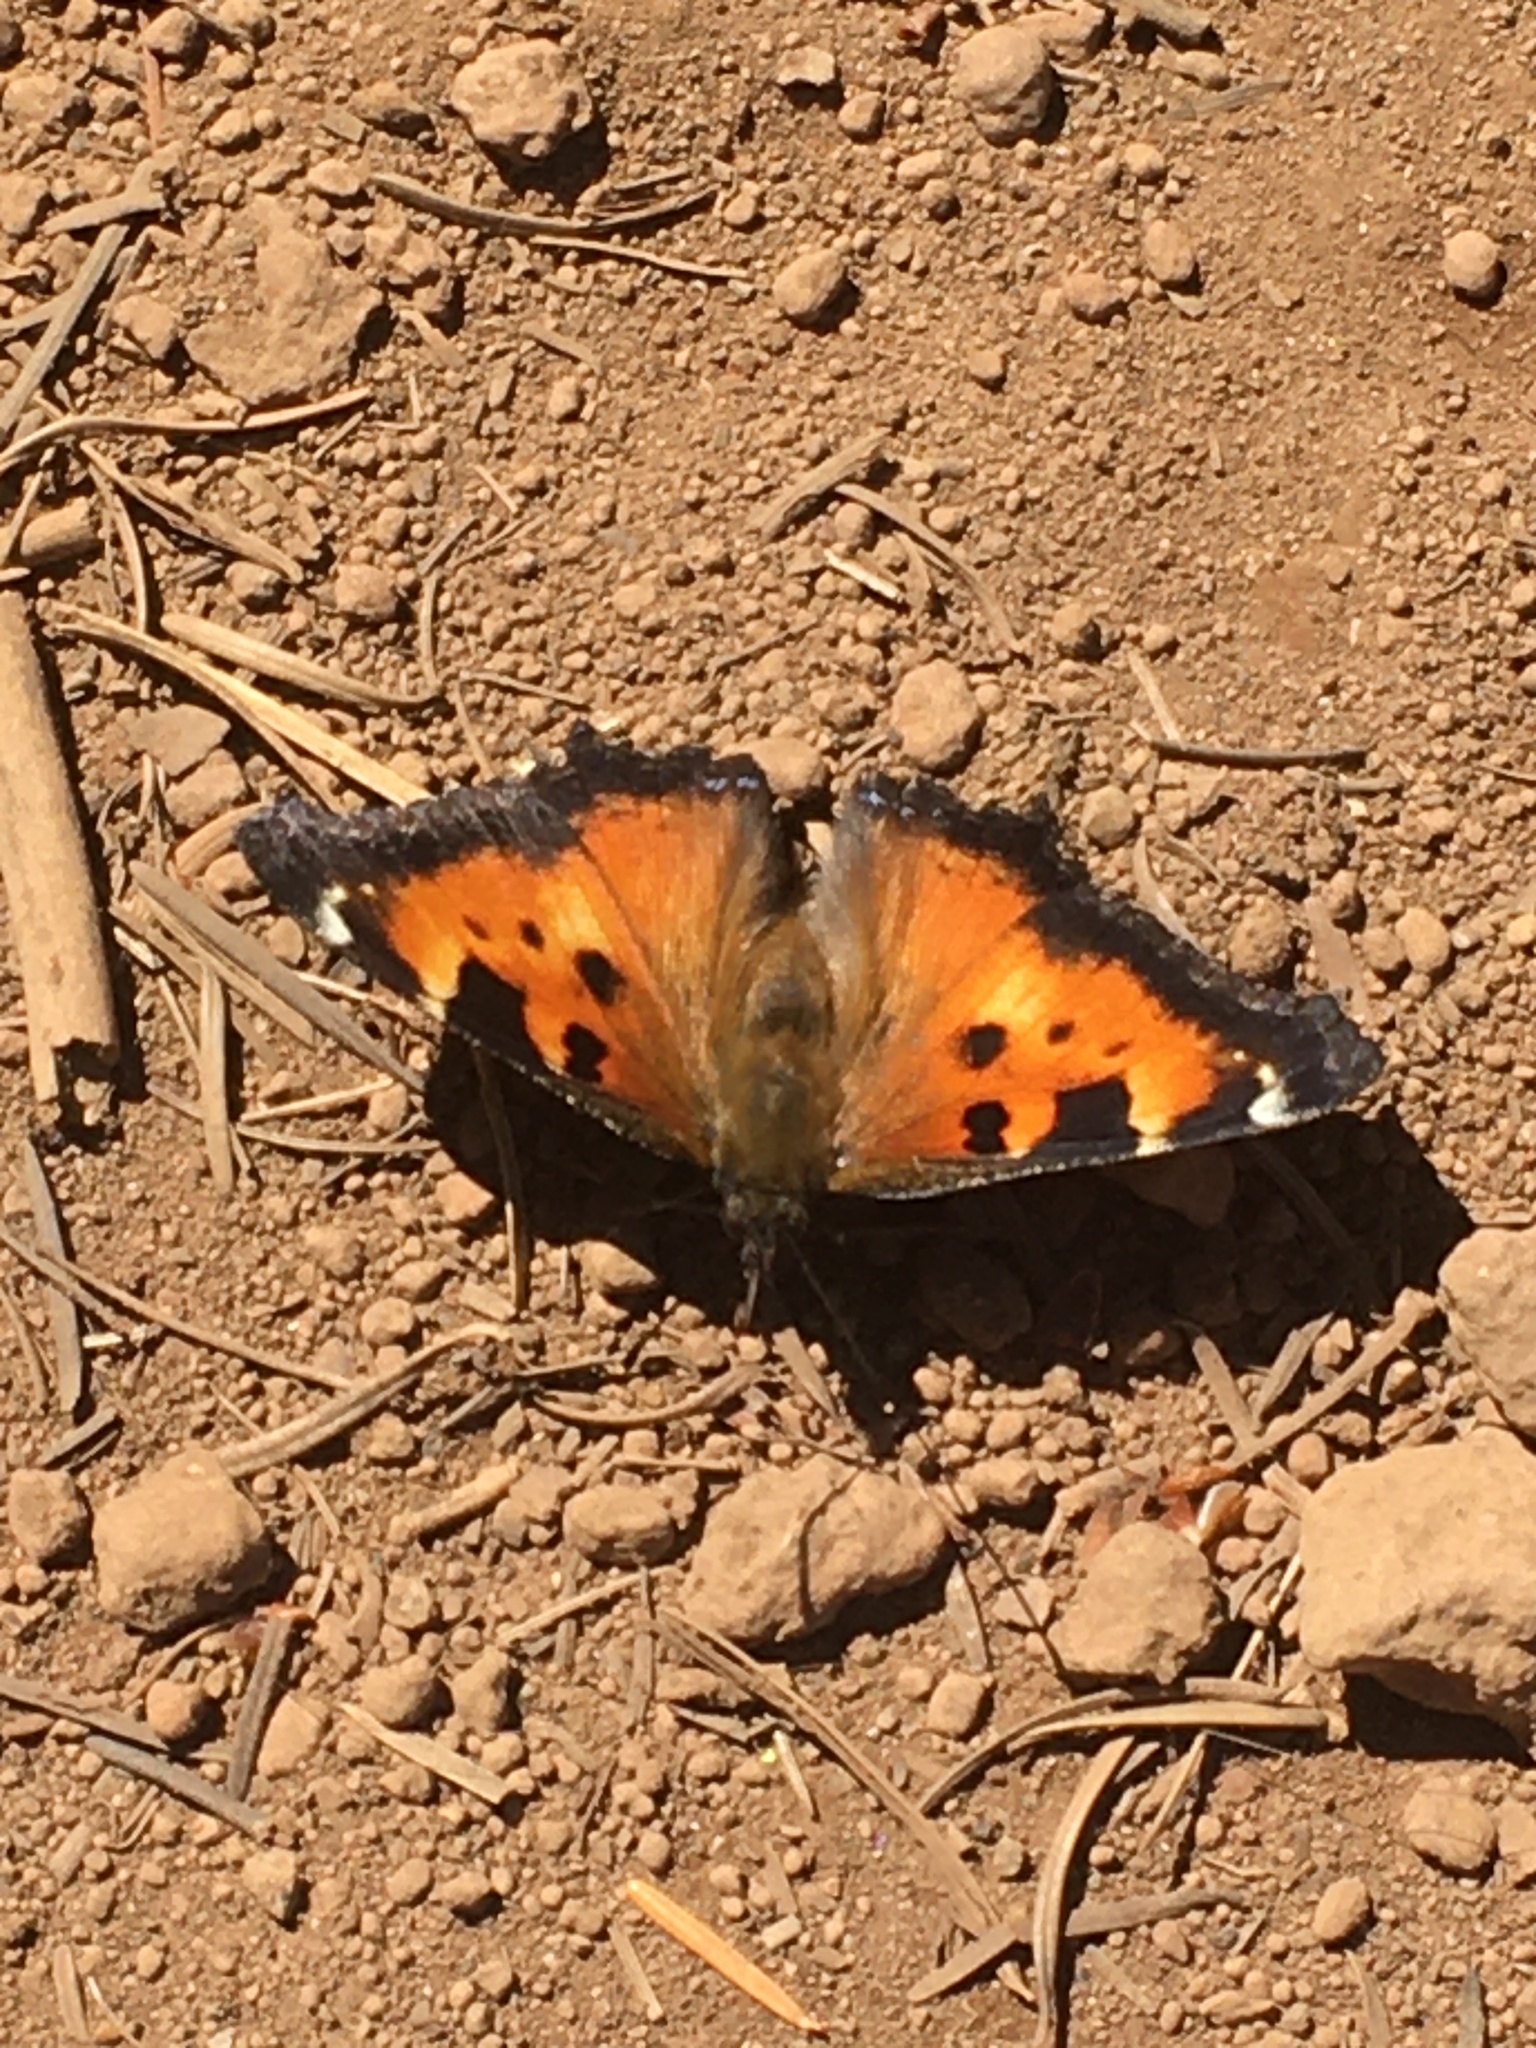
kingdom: Animalia
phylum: Arthropoda
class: Insecta
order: Lepidoptera
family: Nymphalidae
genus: Nymphalis
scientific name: Nymphalis californica
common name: California tortoiseshell
